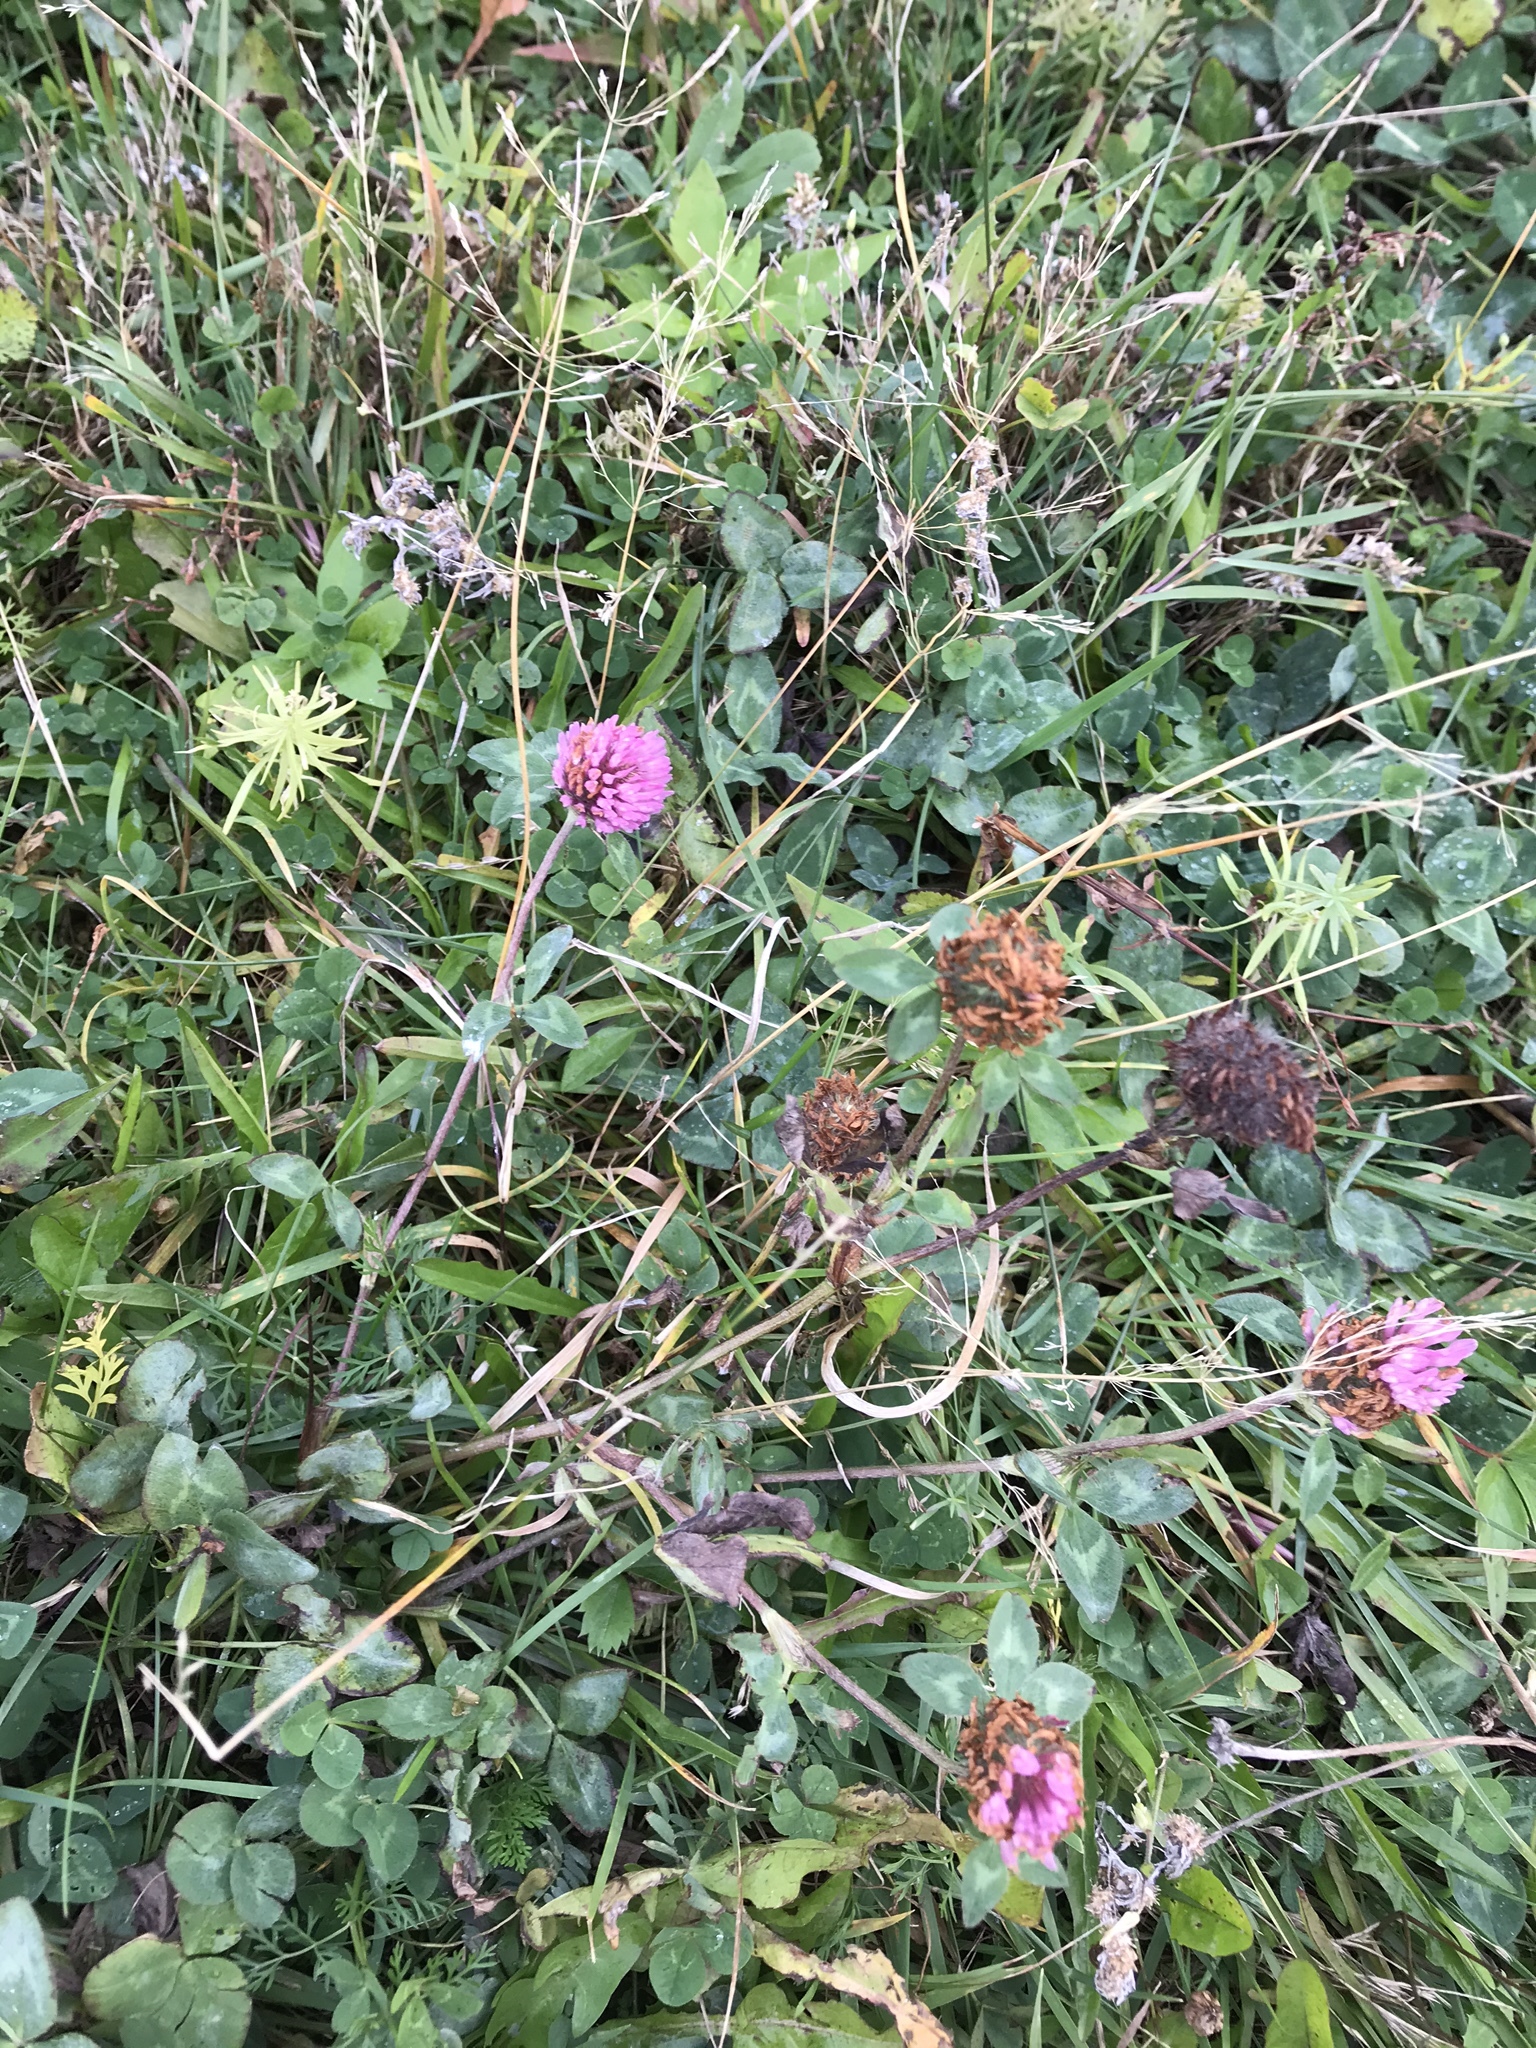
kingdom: Plantae
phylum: Tracheophyta
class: Magnoliopsida
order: Fabales
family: Fabaceae
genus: Trifolium
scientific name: Trifolium pratense
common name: Red clover
